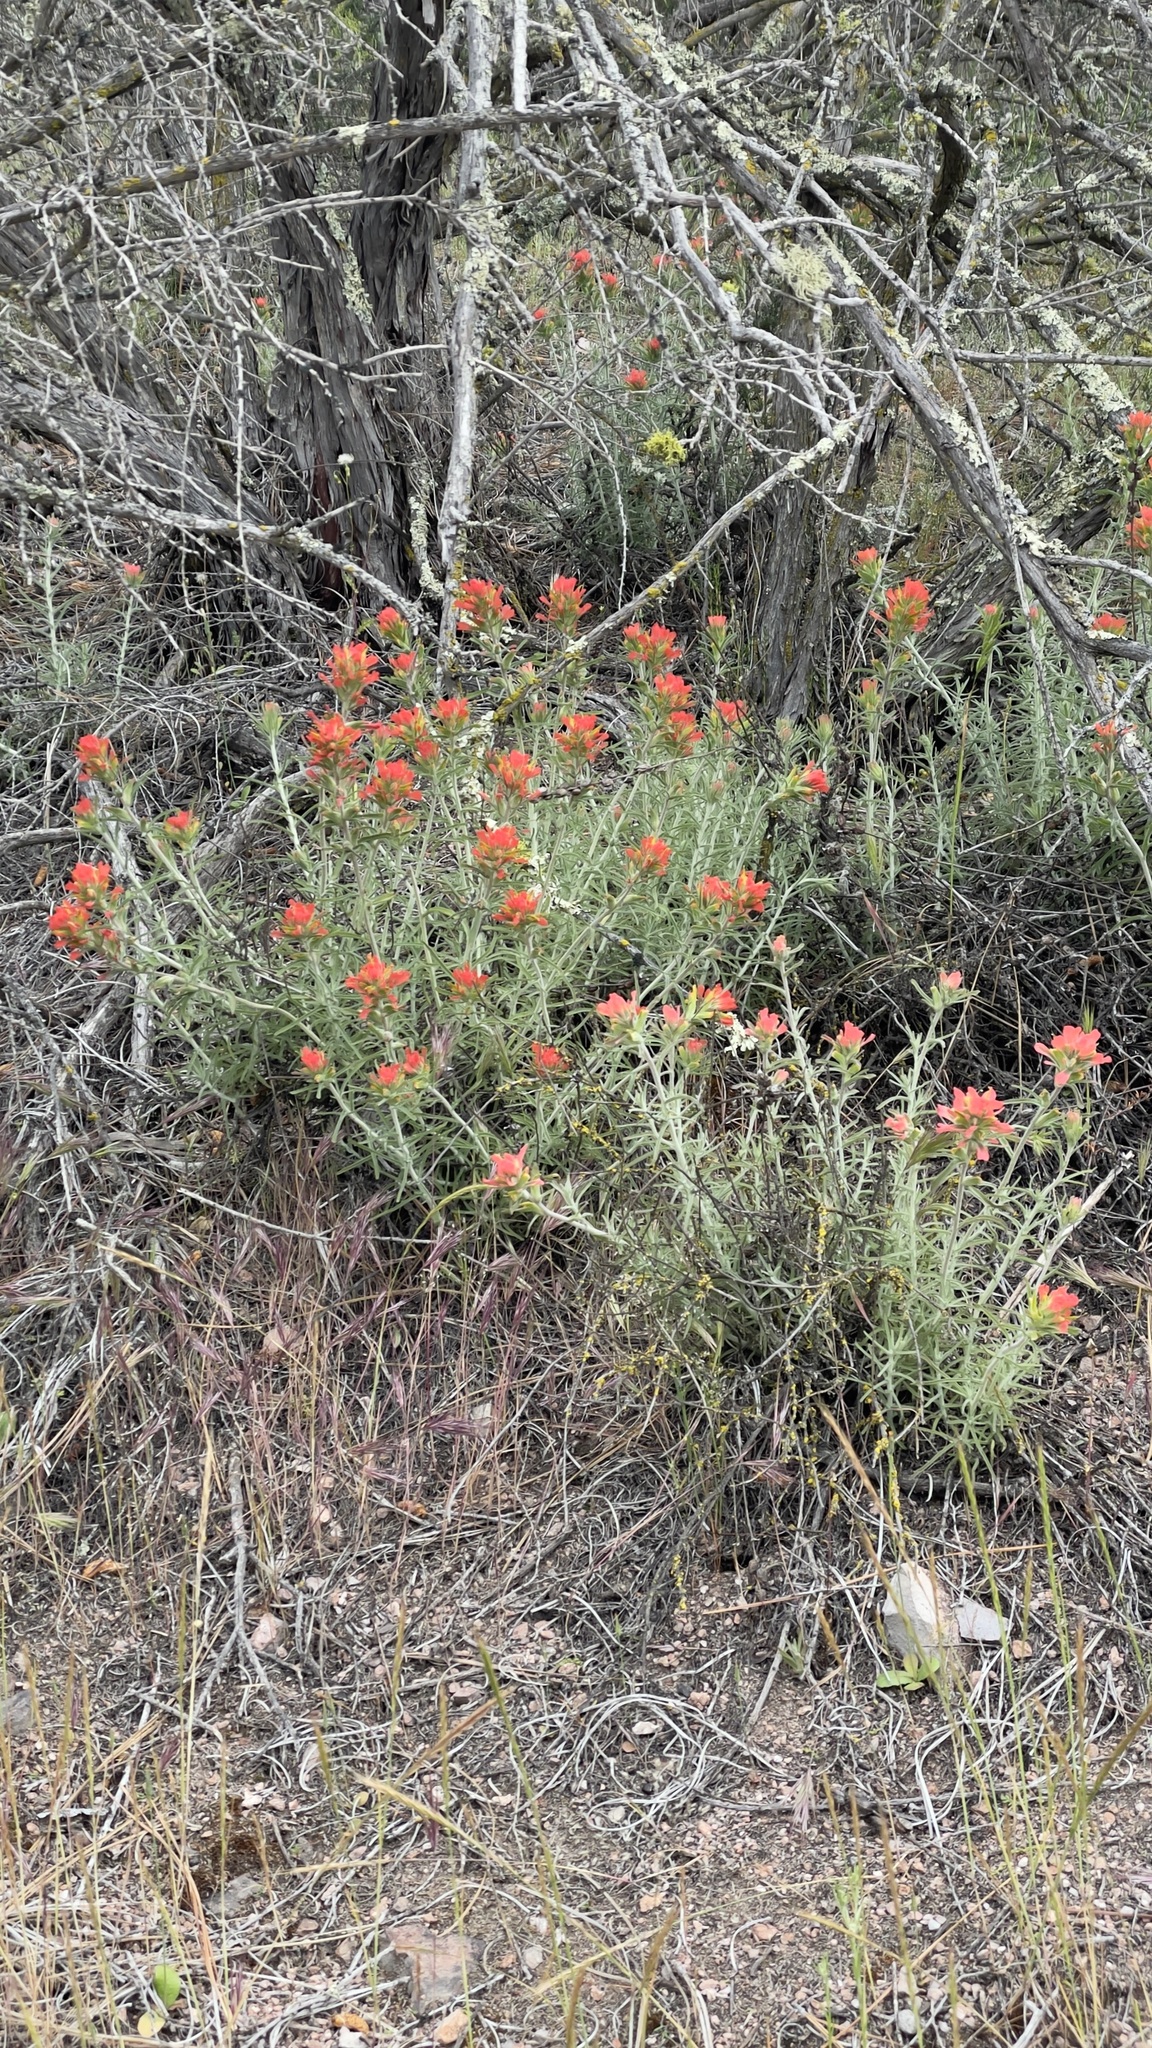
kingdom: Plantae
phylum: Tracheophyta
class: Magnoliopsida
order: Lamiales
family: Orobanchaceae
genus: Castilleja
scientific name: Castilleja foliolosa
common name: Woolly indian paintbrush
